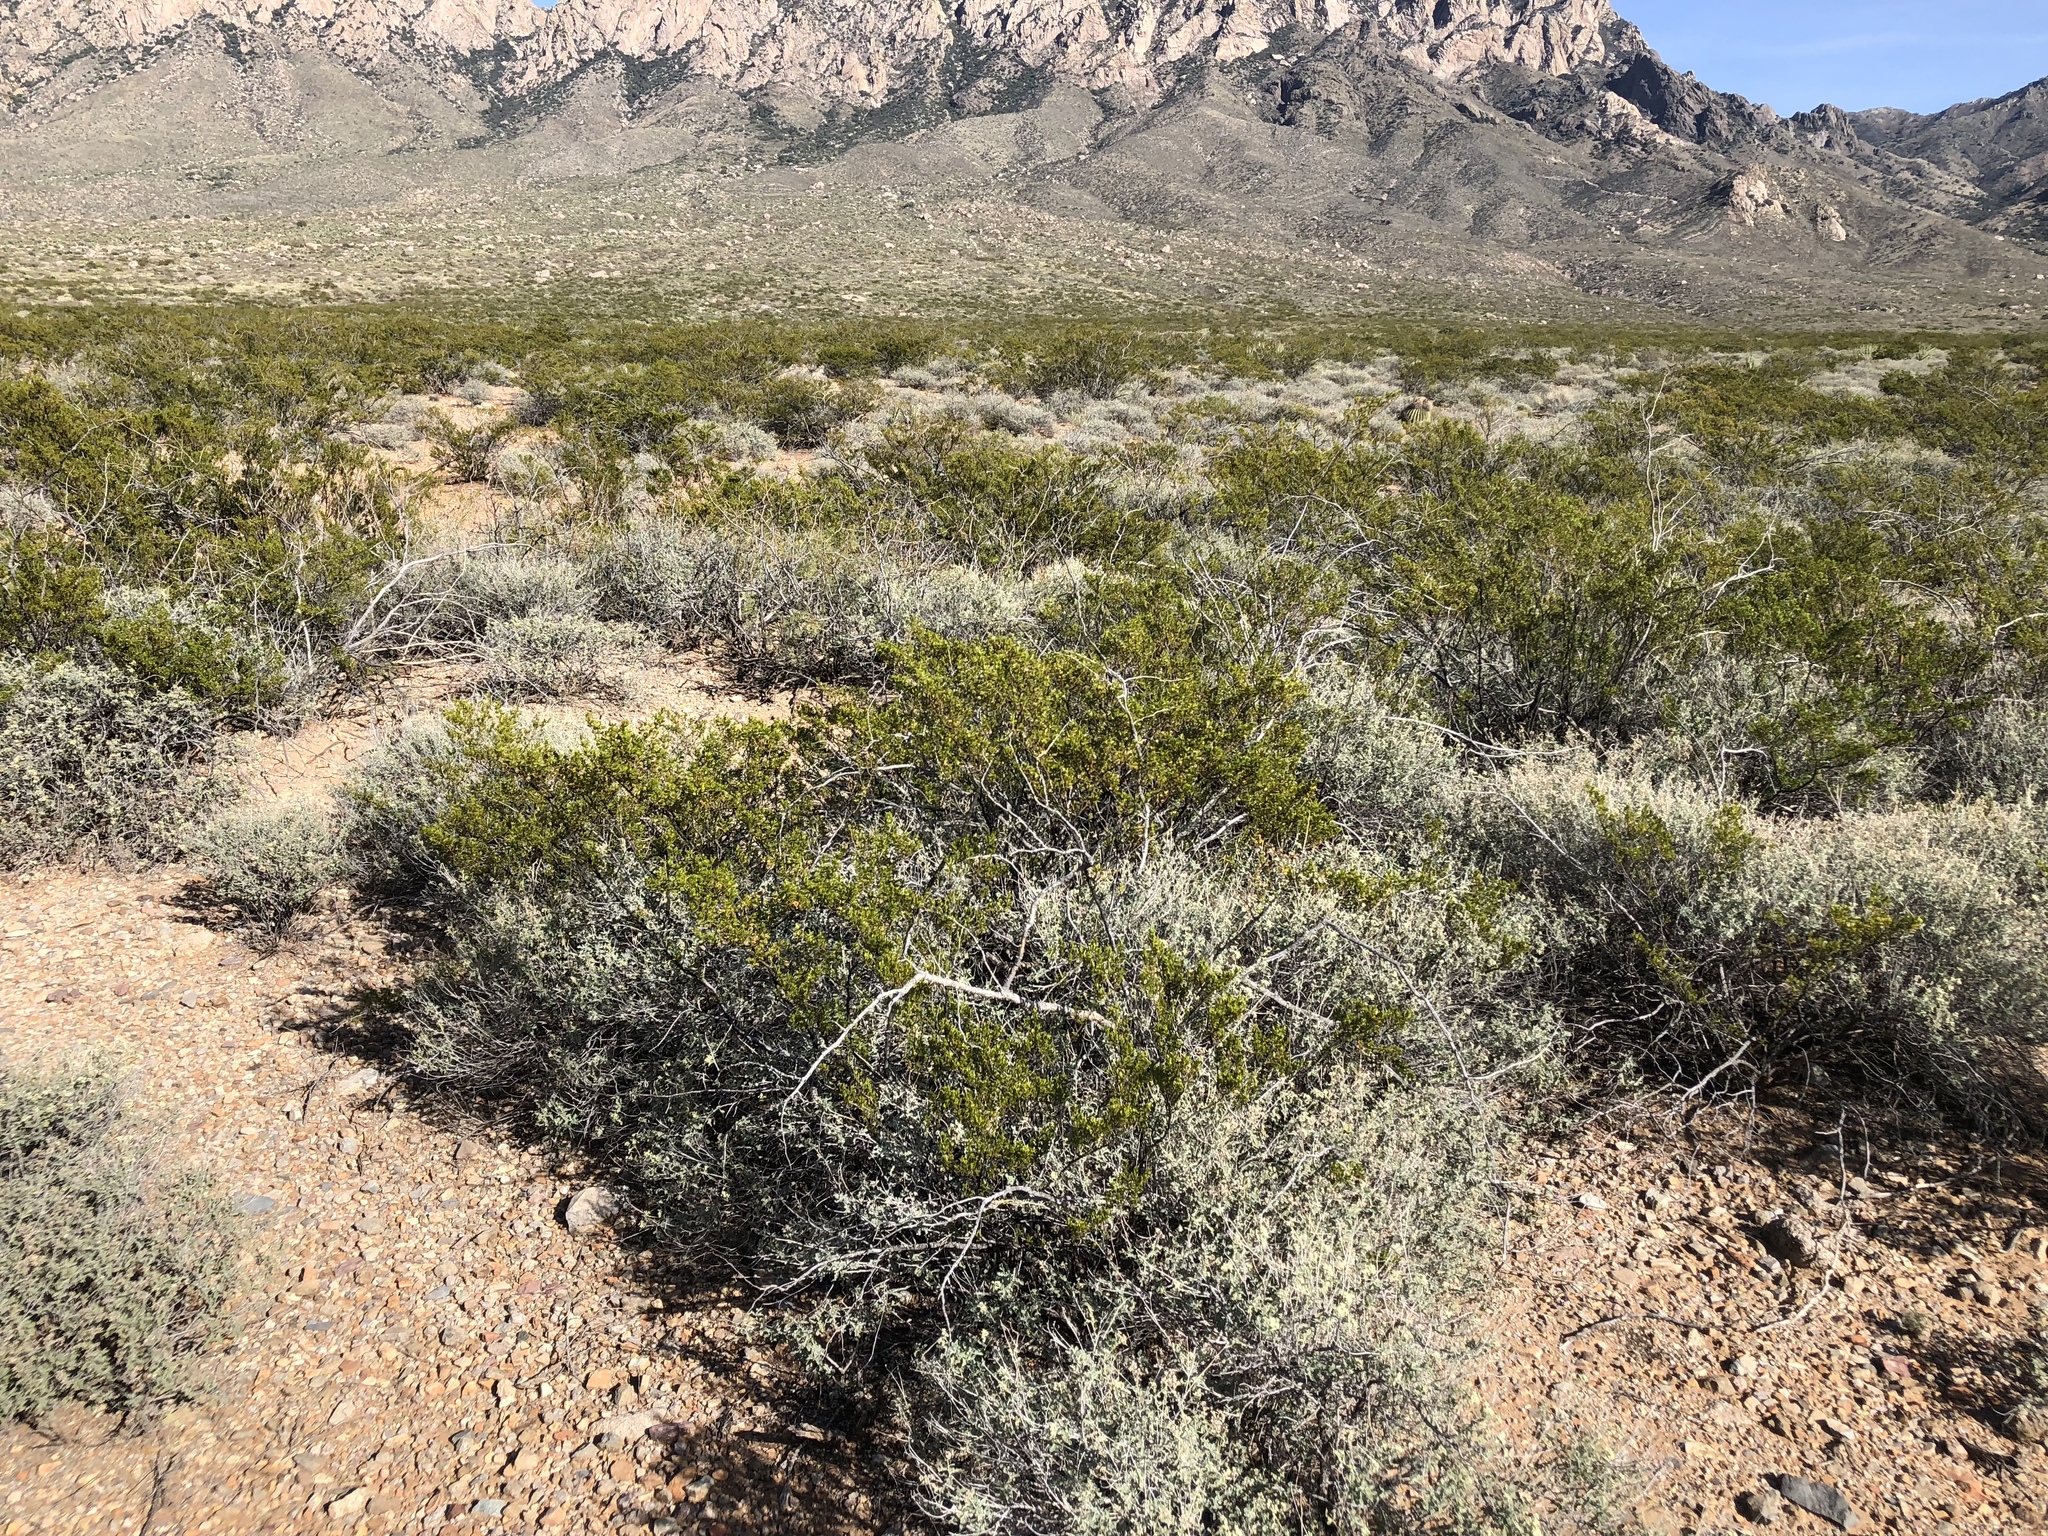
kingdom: Plantae
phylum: Tracheophyta
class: Magnoliopsida
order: Zygophyllales
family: Zygophyllaceae
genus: Larrea
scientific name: Larrea tridentata
